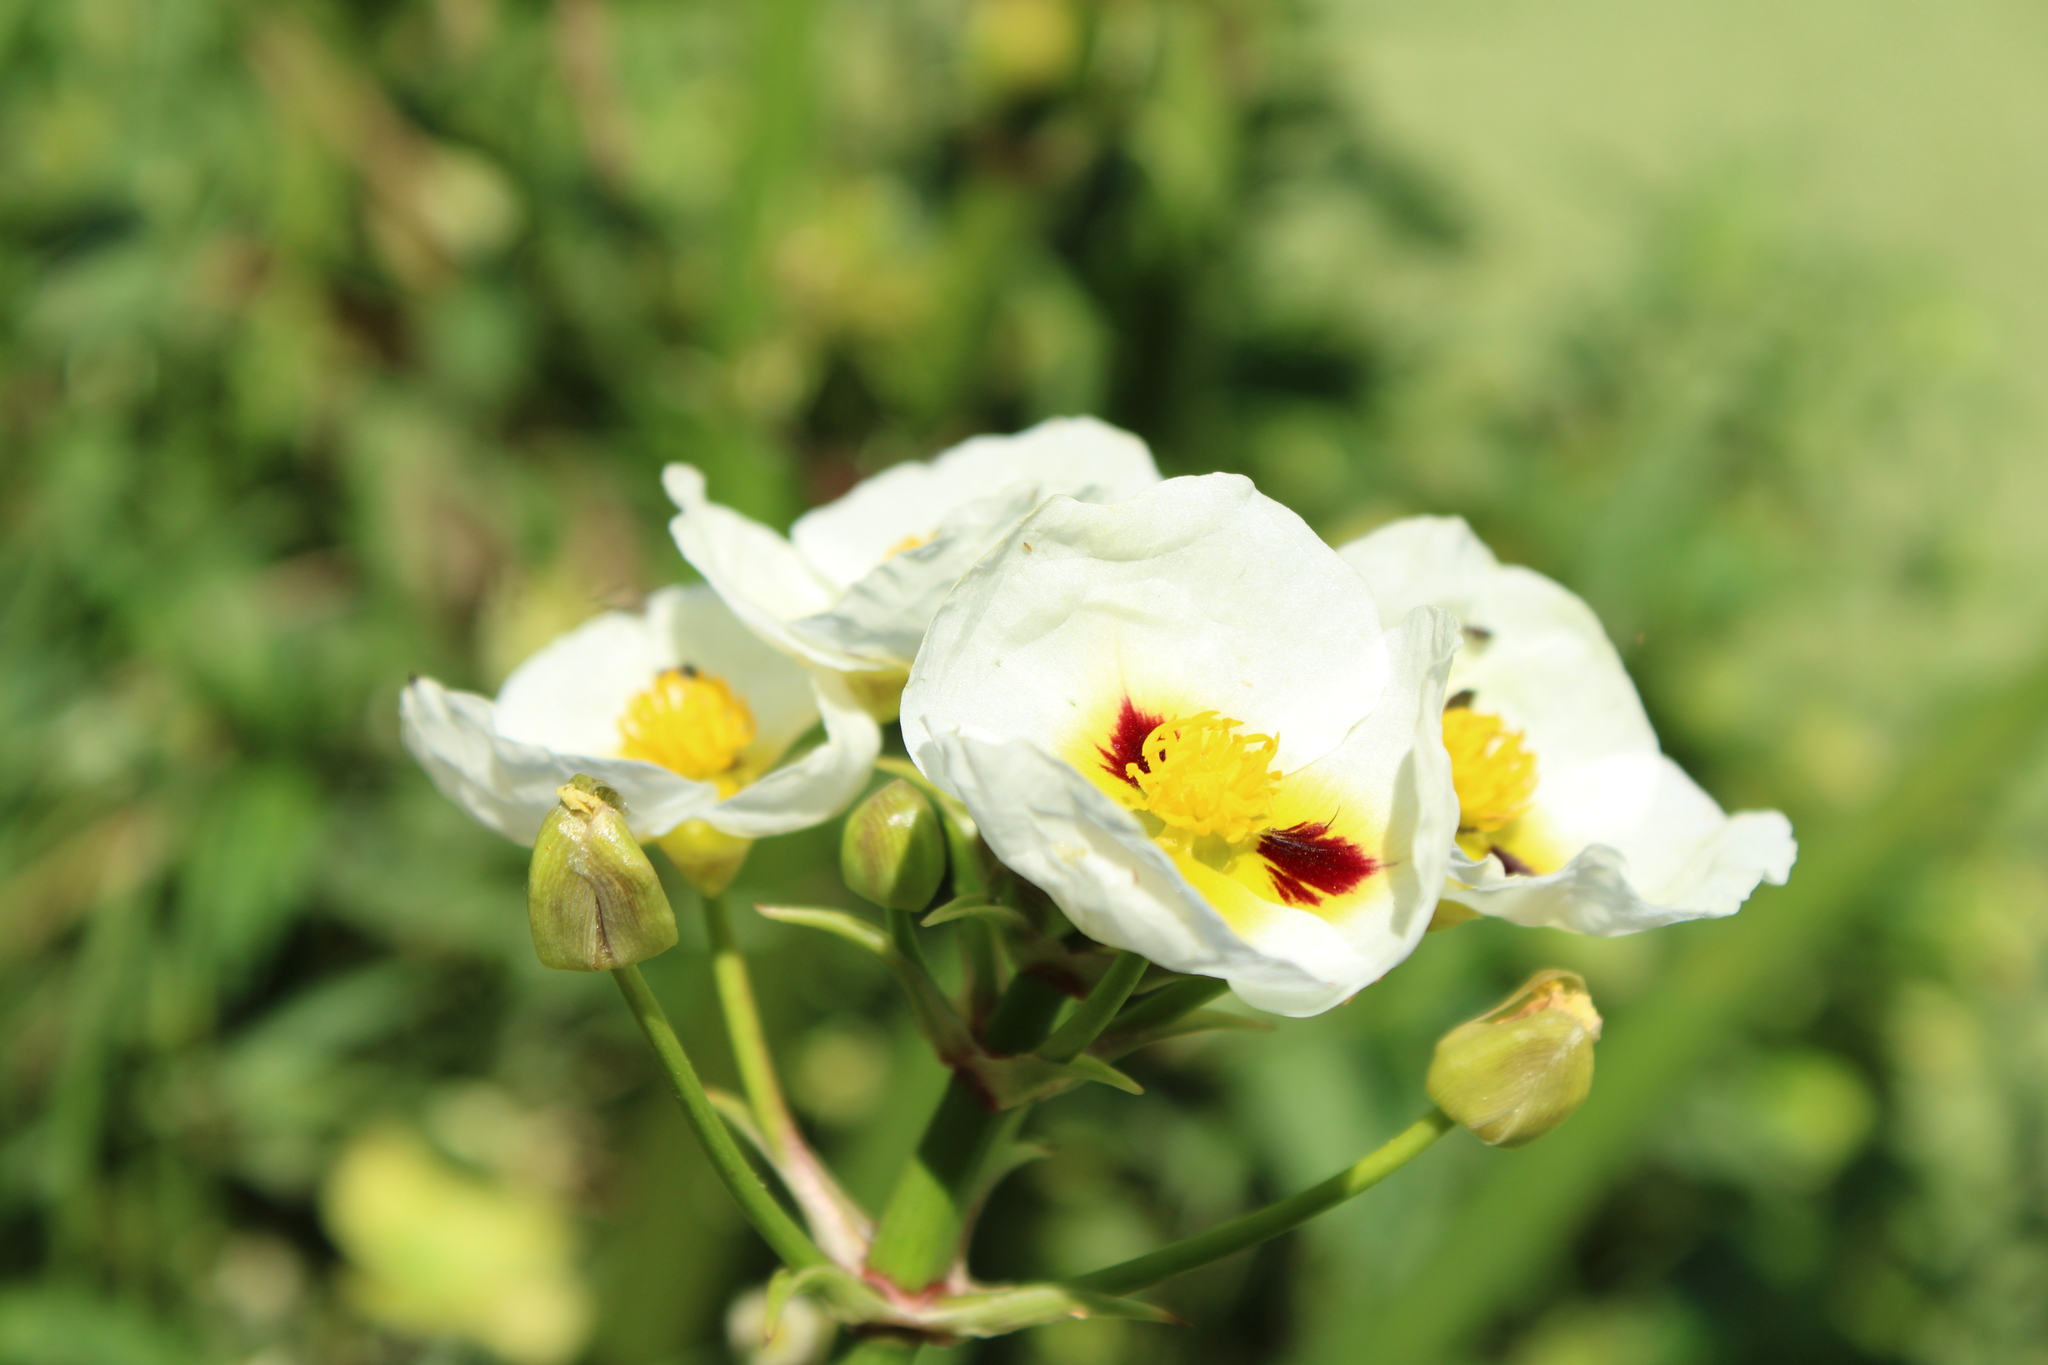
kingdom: Plantae
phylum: Tracheophyta
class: Liliopsida
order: Alismatales
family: Alismataceae
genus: Sagittaria
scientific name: Sagittaria montevidensis
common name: Giant arrowhead
